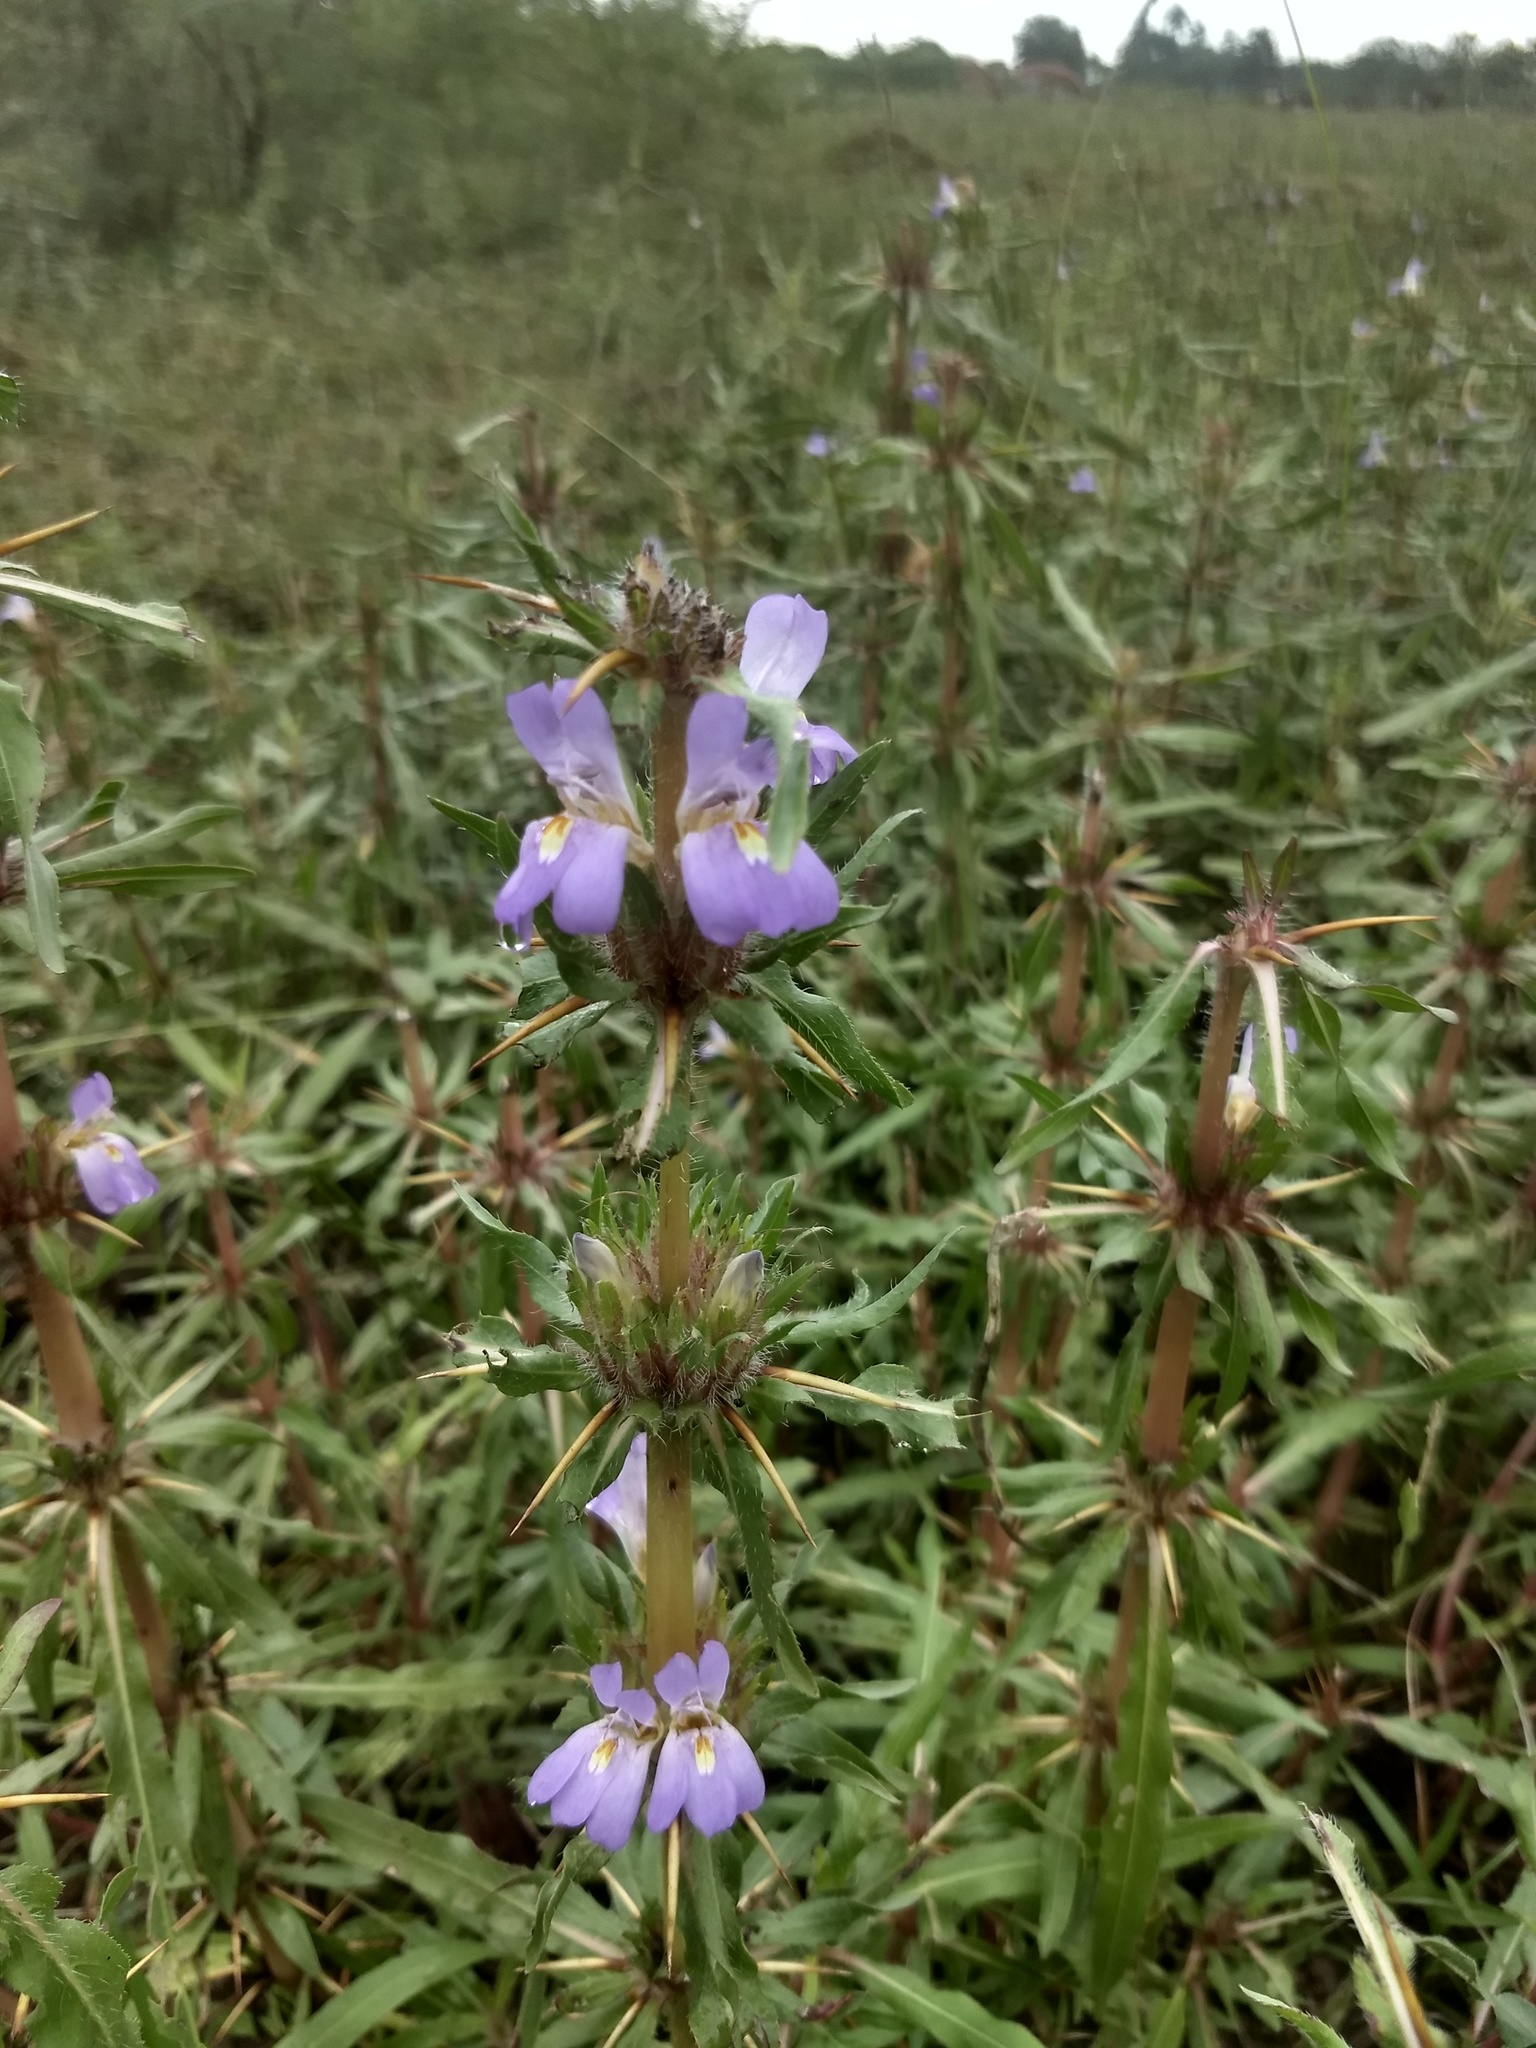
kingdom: Plantae
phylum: Tracheophyta
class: Magnoliopsida
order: Lamiales
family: Acanthaceae
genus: Hygrophila
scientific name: Hygrophila auriculata
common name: Hygrophila
